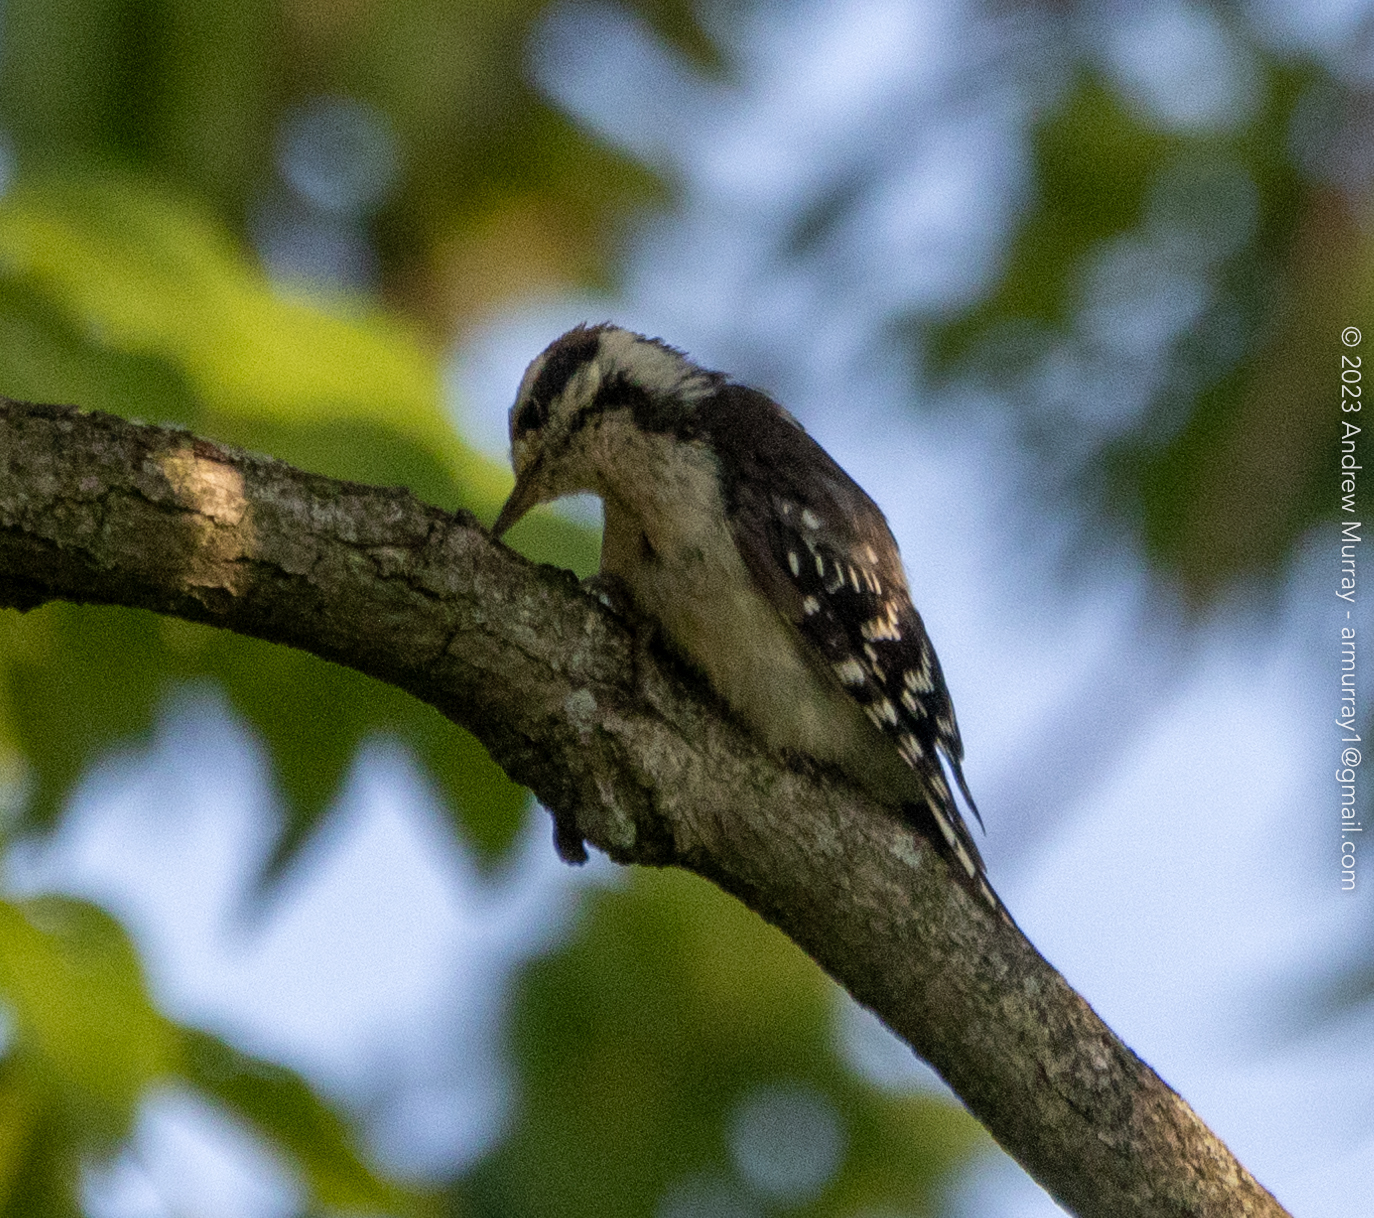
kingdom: Animalia
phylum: Chordata
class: Aves
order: Piciformes
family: Picidae
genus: Dryobates
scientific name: Dryobates pubescens
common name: Downy woodpecker
